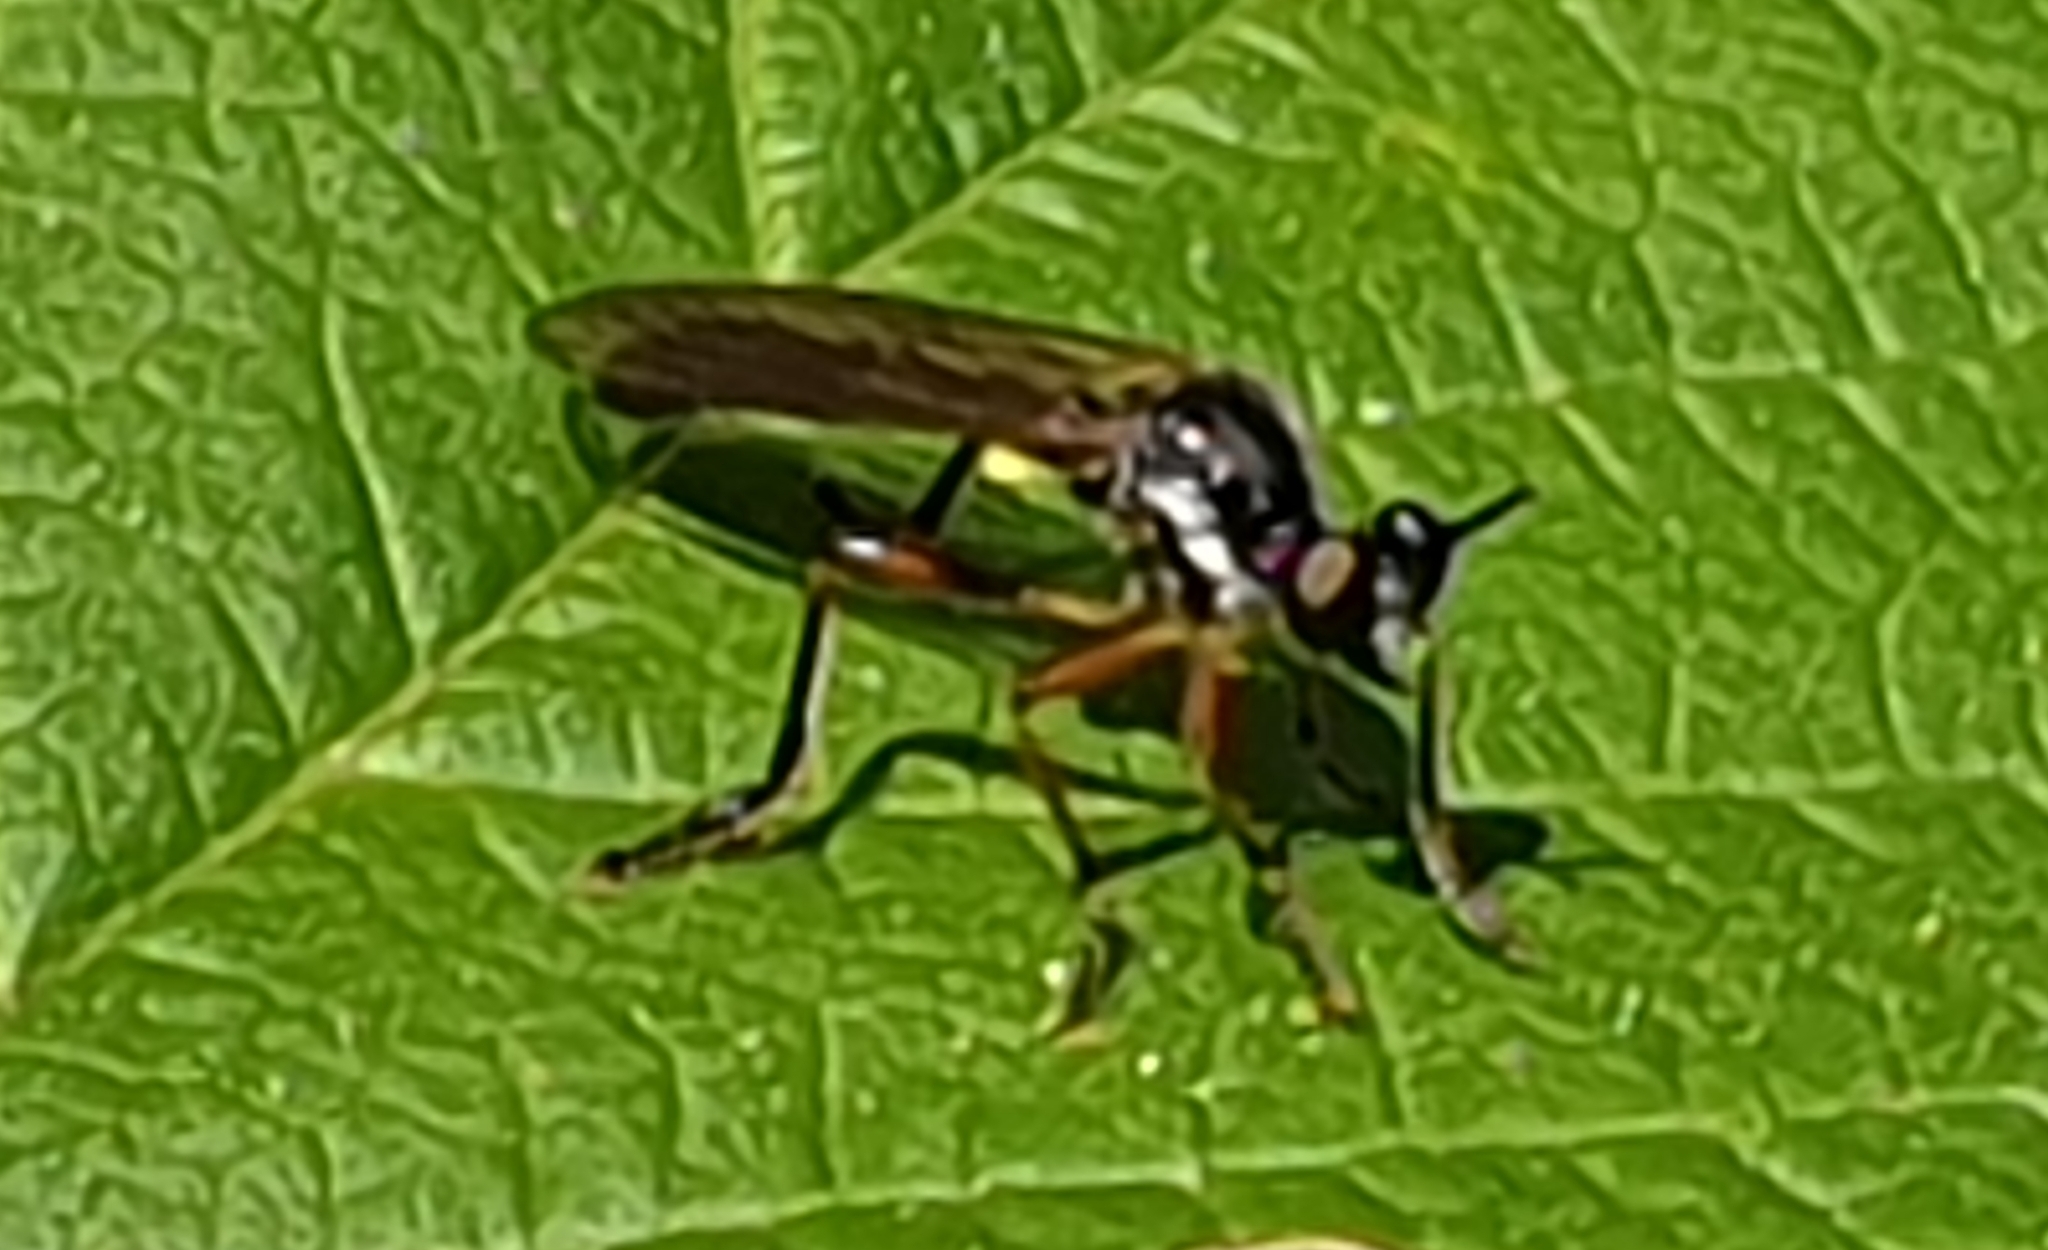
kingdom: Animalia
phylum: Arthropoda
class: Insecta
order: Diptera
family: Asilidae
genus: Dioctria
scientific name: Dioctria hyalipennis
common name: Stripe-legged robberfly
